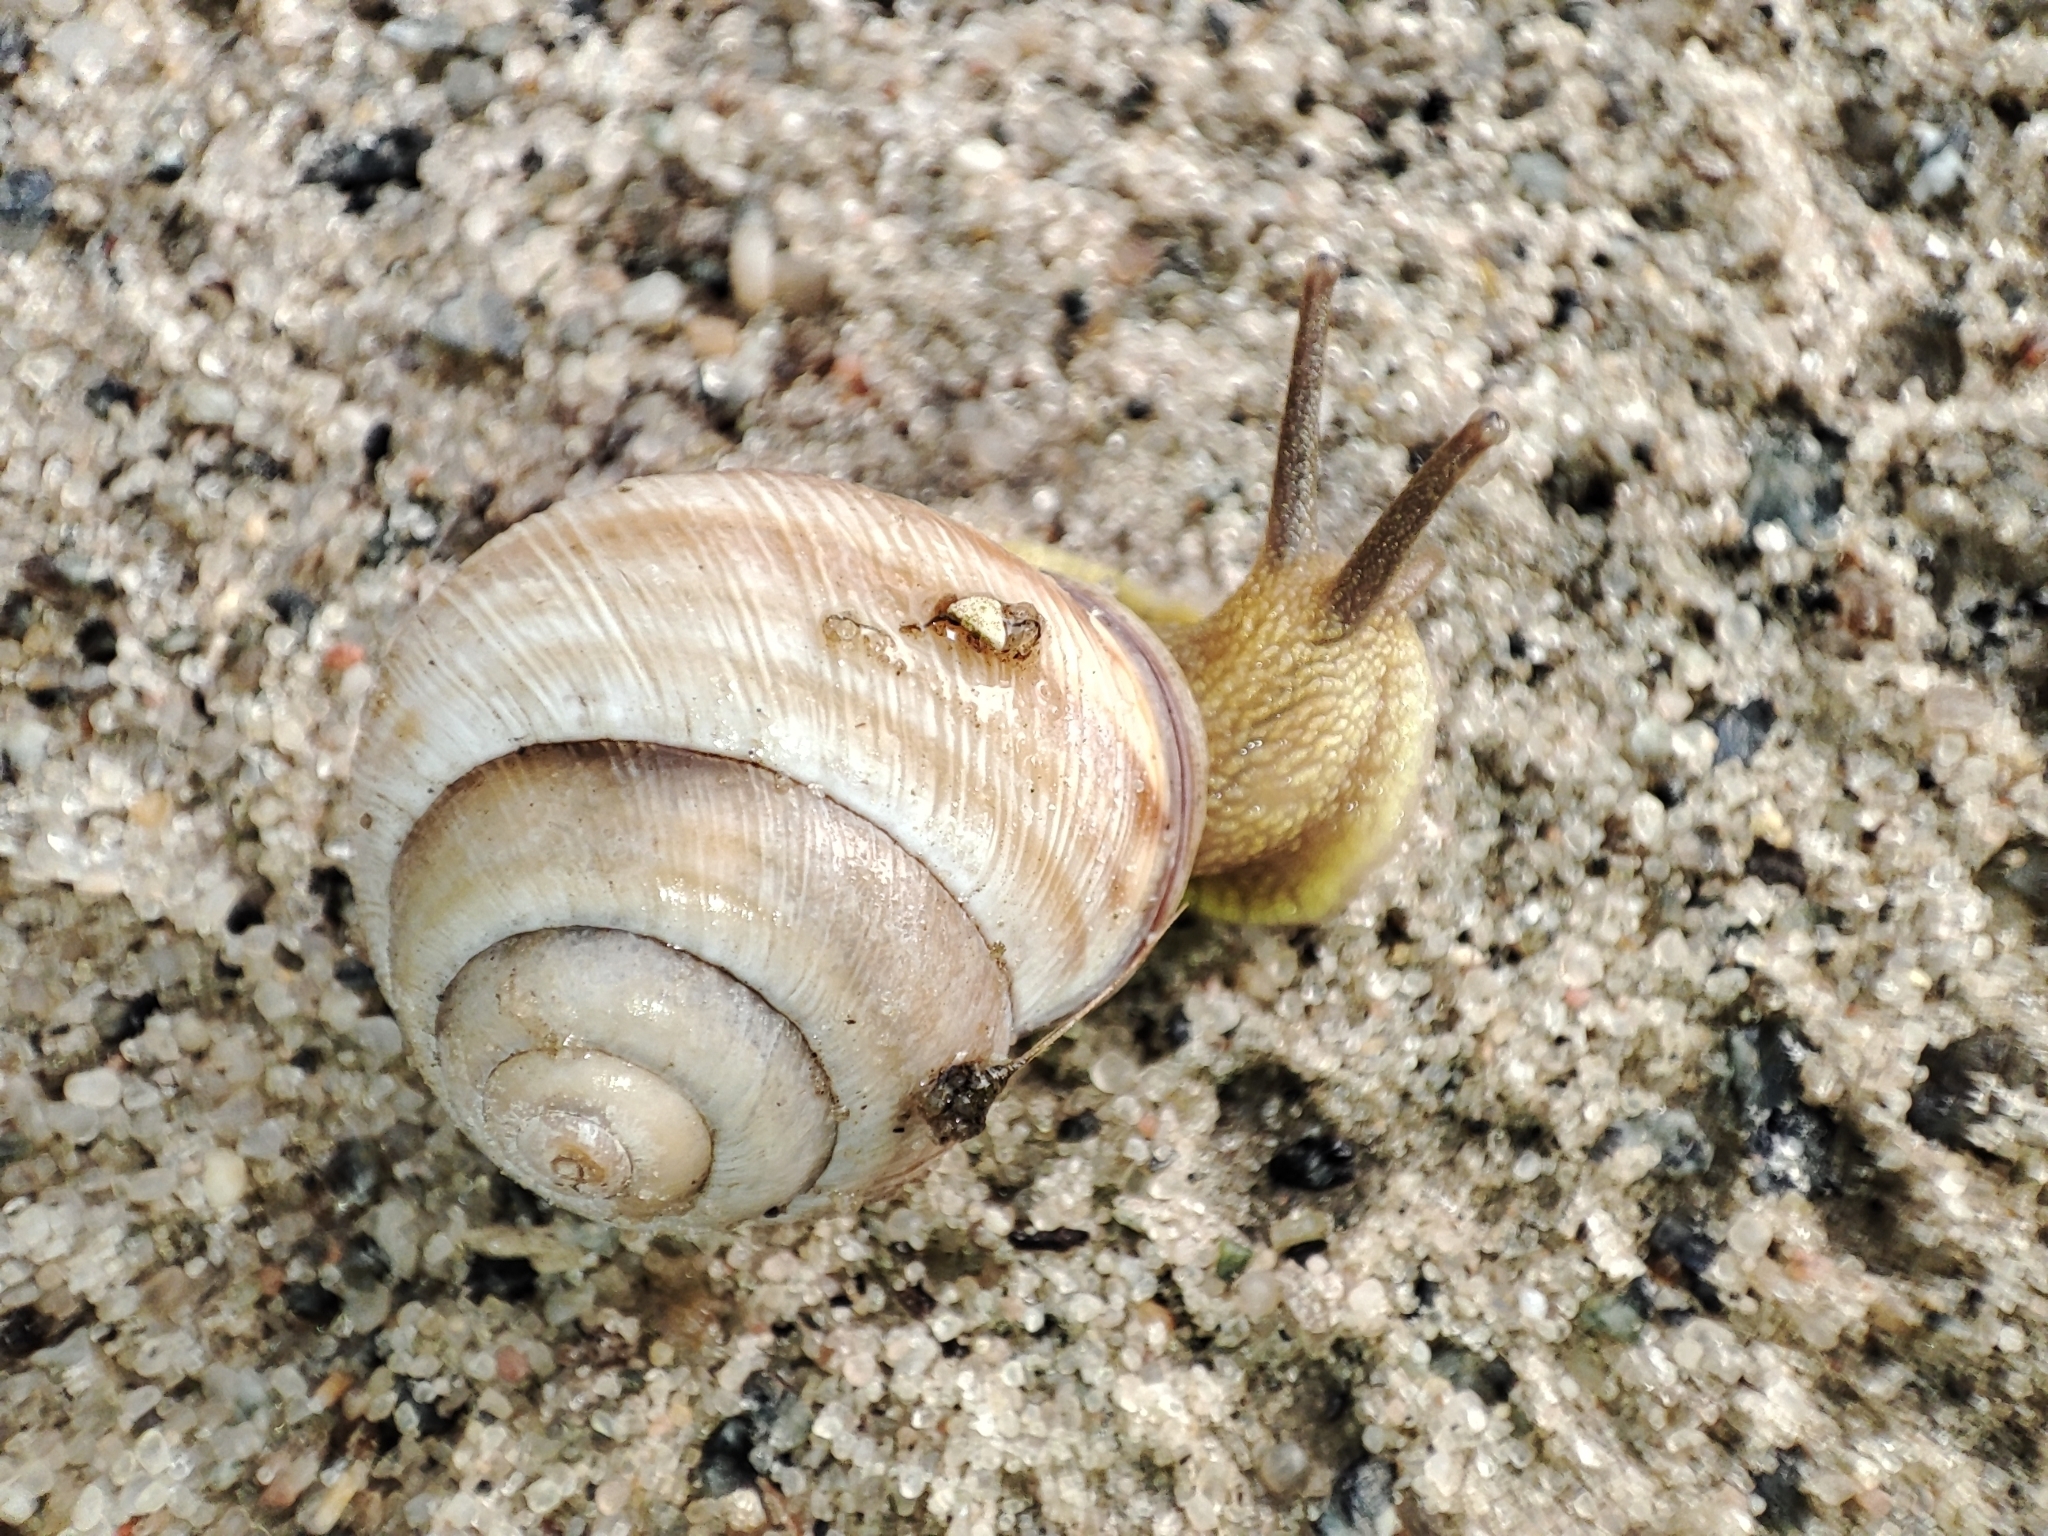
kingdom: Animalia
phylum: Mollusca
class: Gastropoda
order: Stylommatophora
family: Helicidae
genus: Caucasotachea
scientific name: Caucasotachea vindobonensis
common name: European helicid land snail
